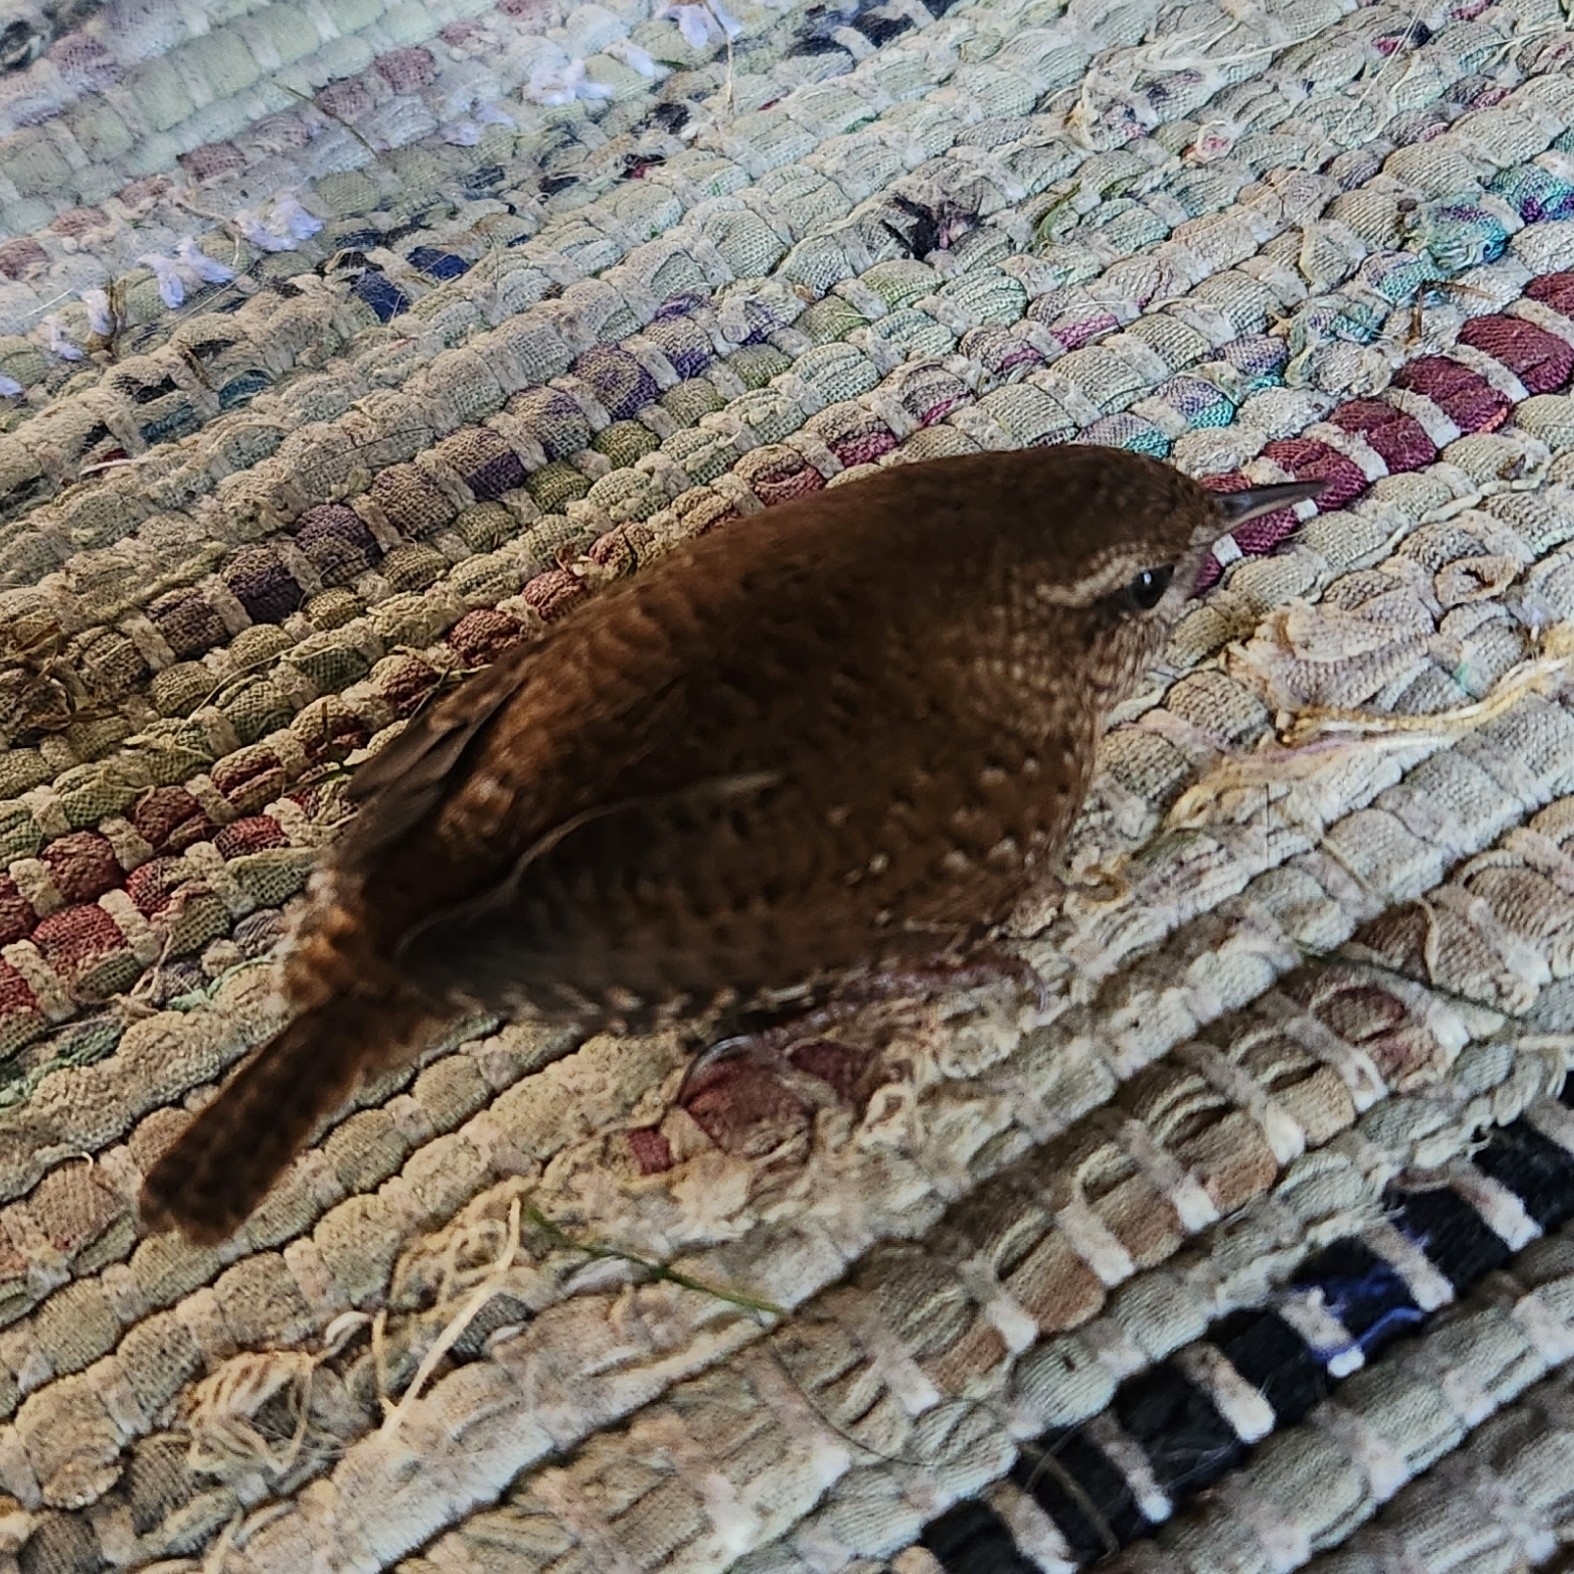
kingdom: Animalia
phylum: Chordata
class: Aves
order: Passeriformes
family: Troglodytidae
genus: Troglodytes
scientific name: Troglodytes hiemalis
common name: Winter wren
